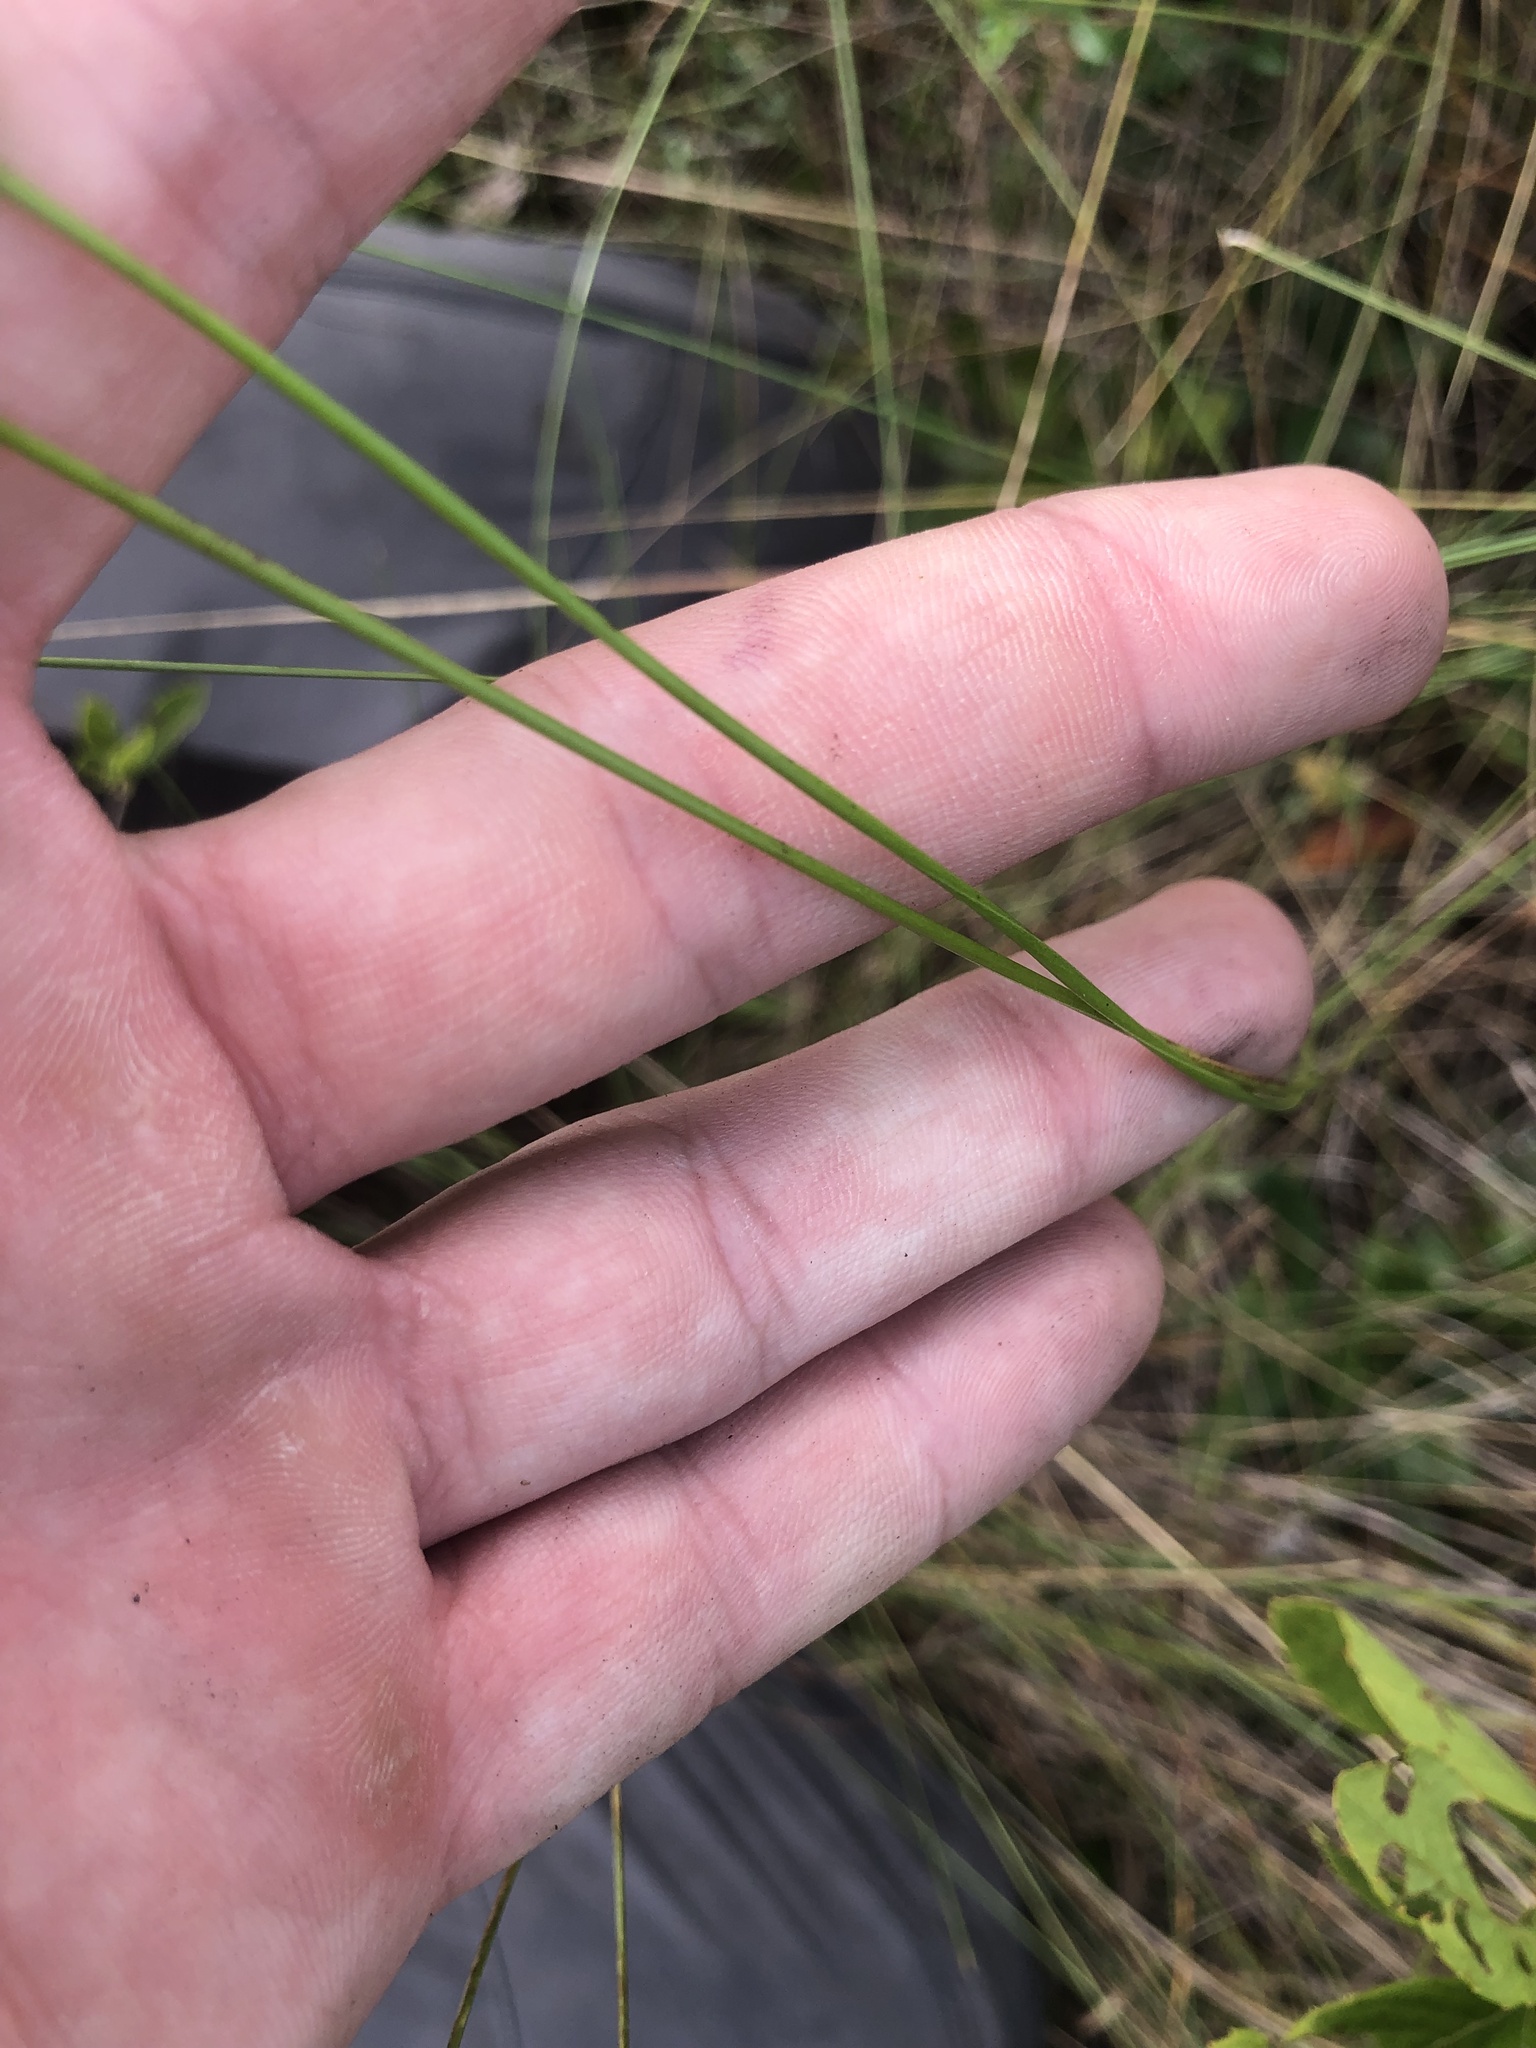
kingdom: Plantae
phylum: Tracheophyta
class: Liliopsida
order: Poales
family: Xyridaceae
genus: Xyris
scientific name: Xyris caroliniana
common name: Carolina yellow-eyed-grass
